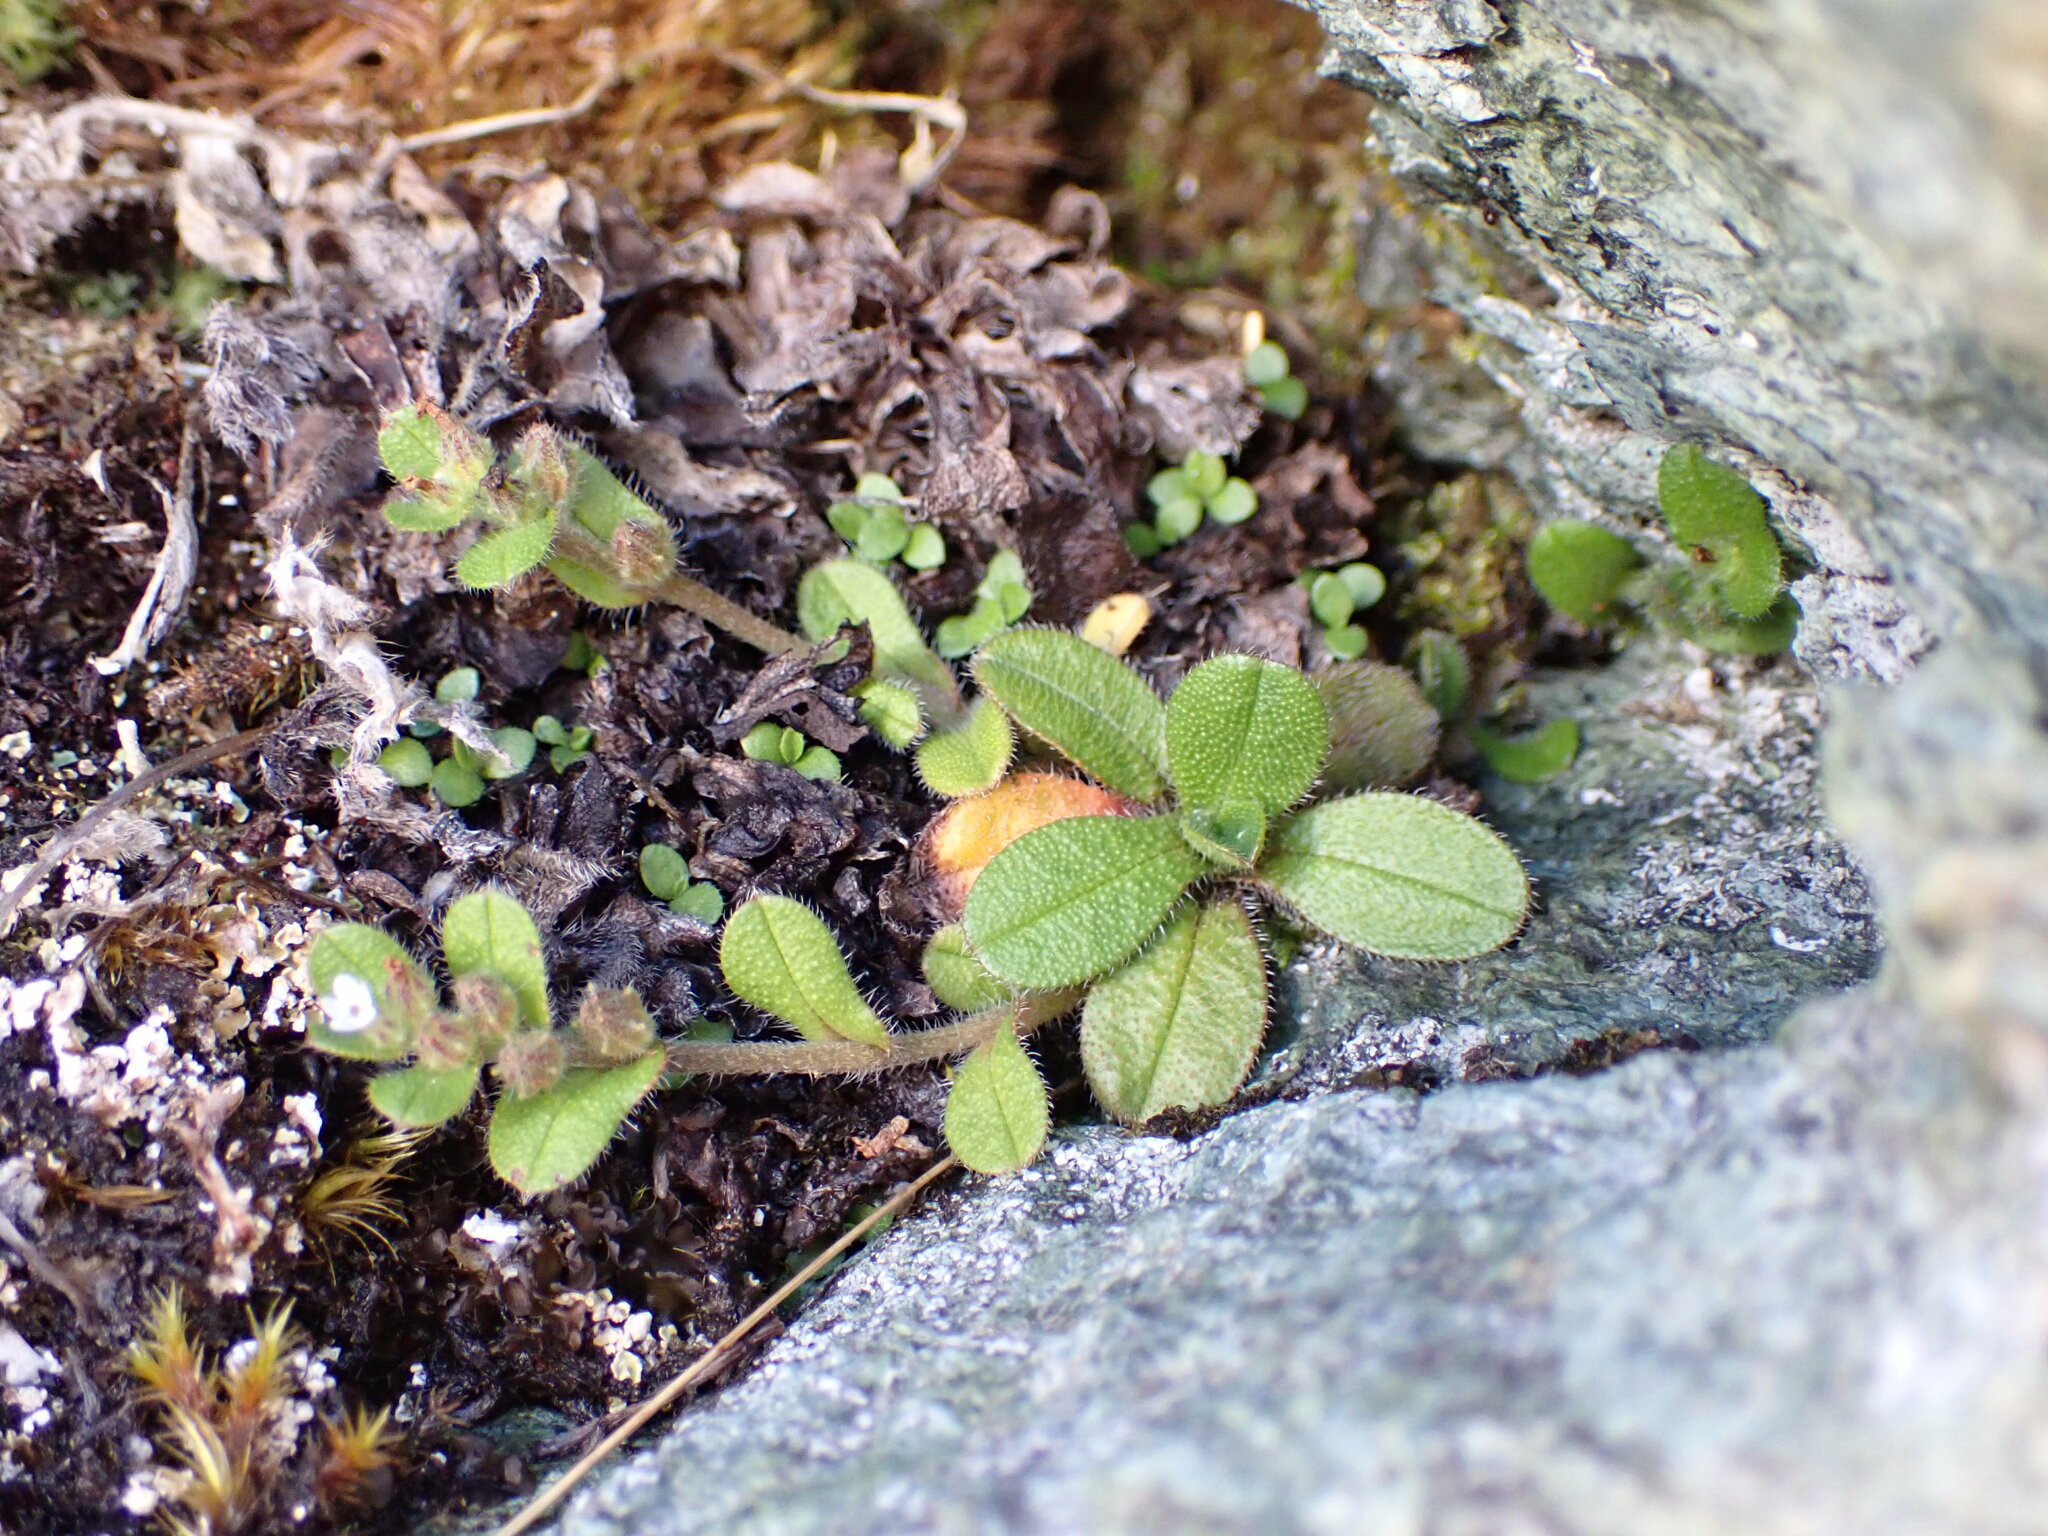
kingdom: Plantae
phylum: Tracheophyta
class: Magnoliopsida
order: Boraginales
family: Boraginaceae
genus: Myosotis
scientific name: Myosotis antarctica
